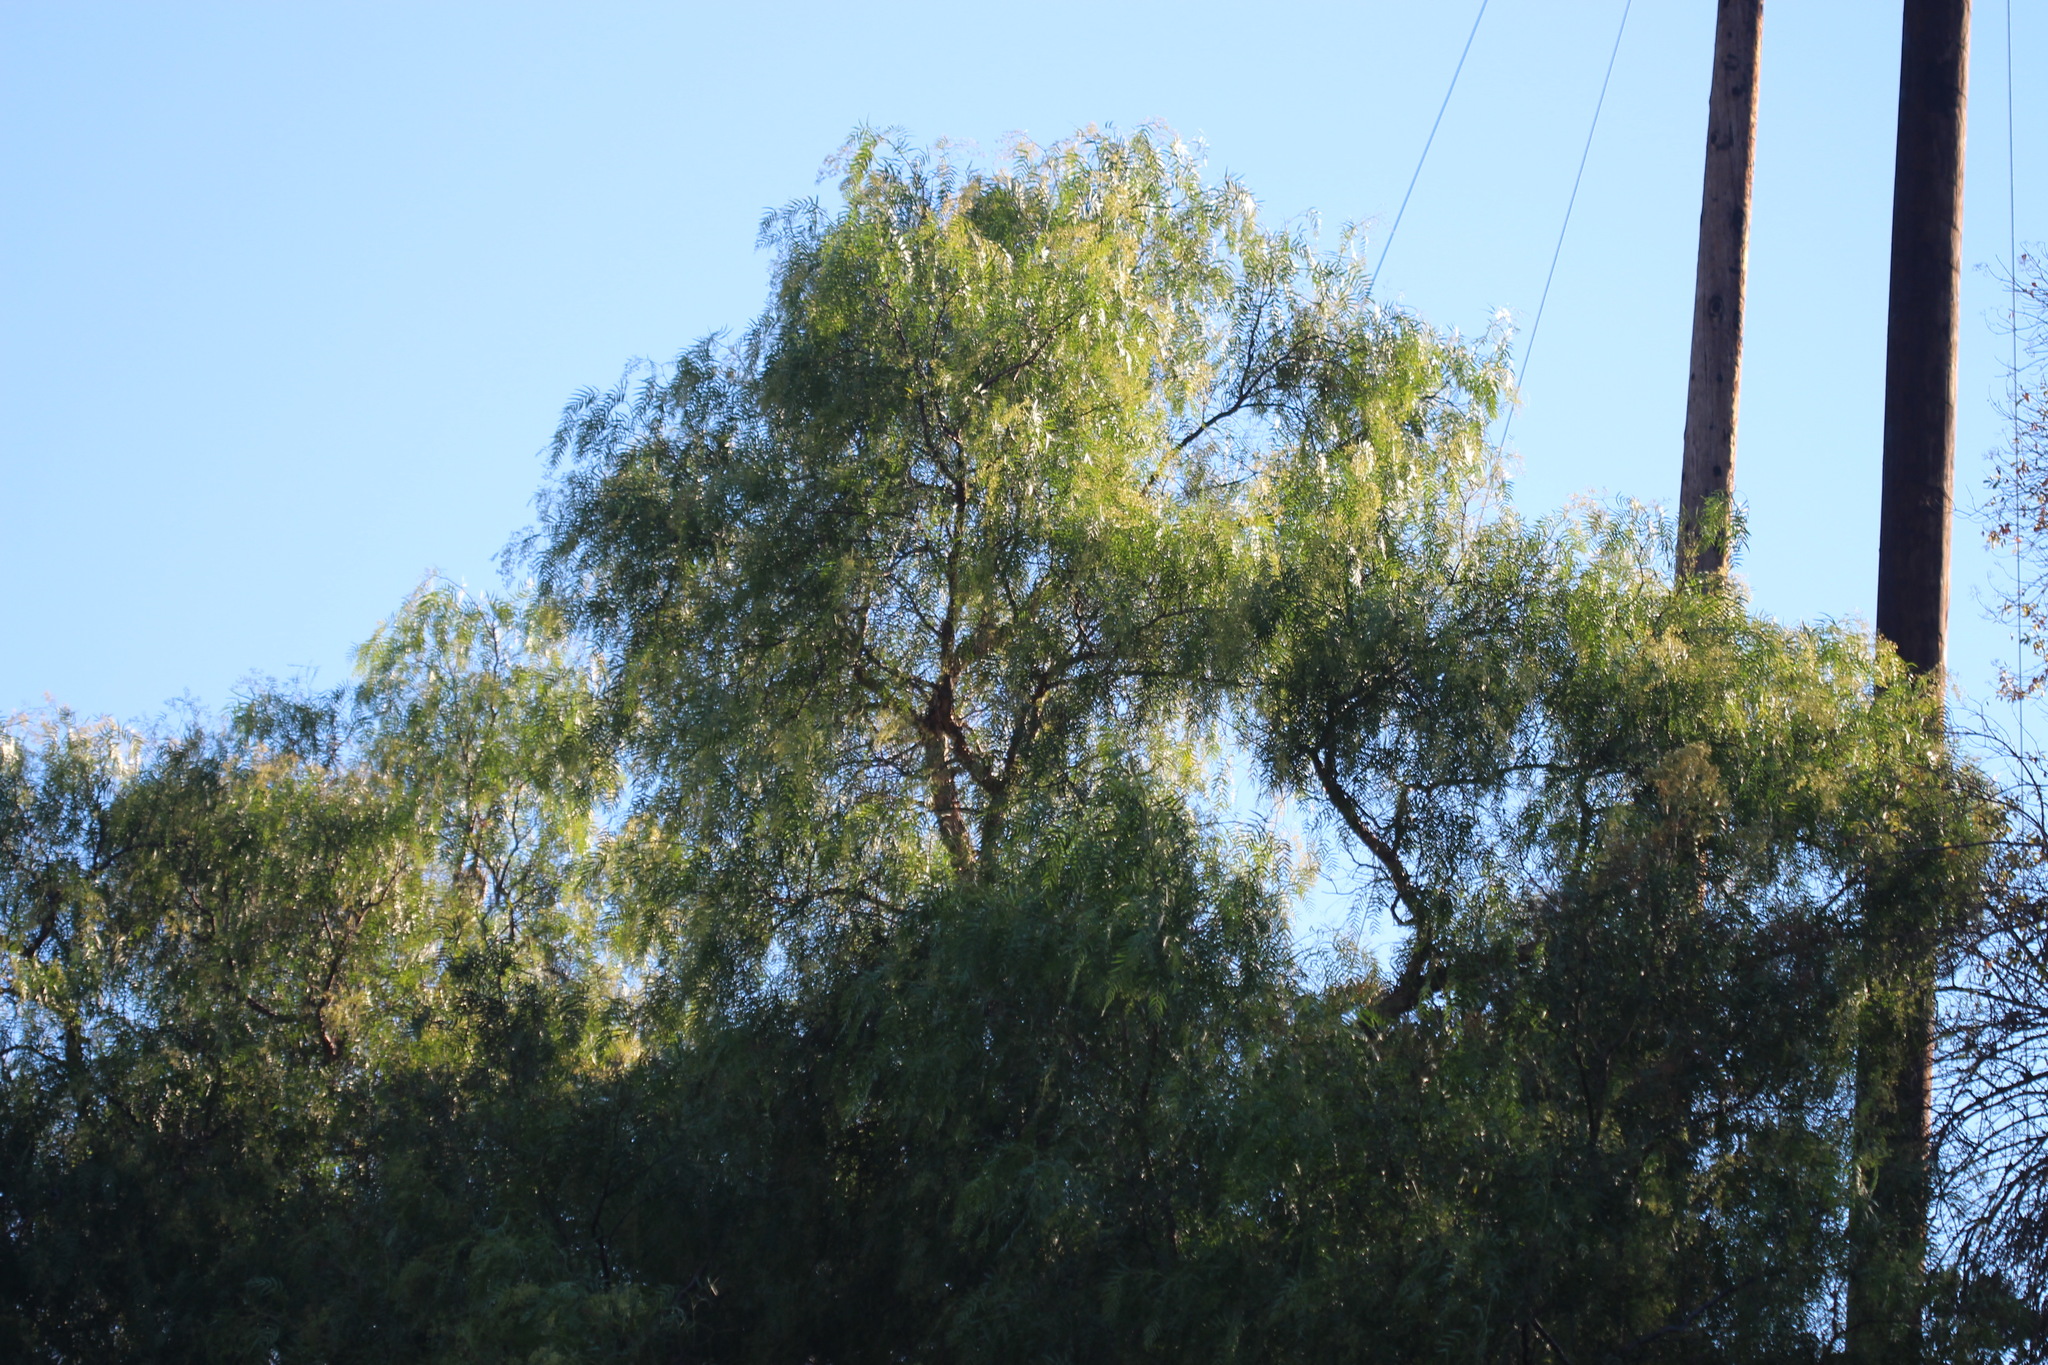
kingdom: Plantae
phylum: Tracheophyta
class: Magnoliopsida
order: Sapindales
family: Anacardiaceae
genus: Schinus
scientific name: Schinus molle
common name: Peruvian peppertree
